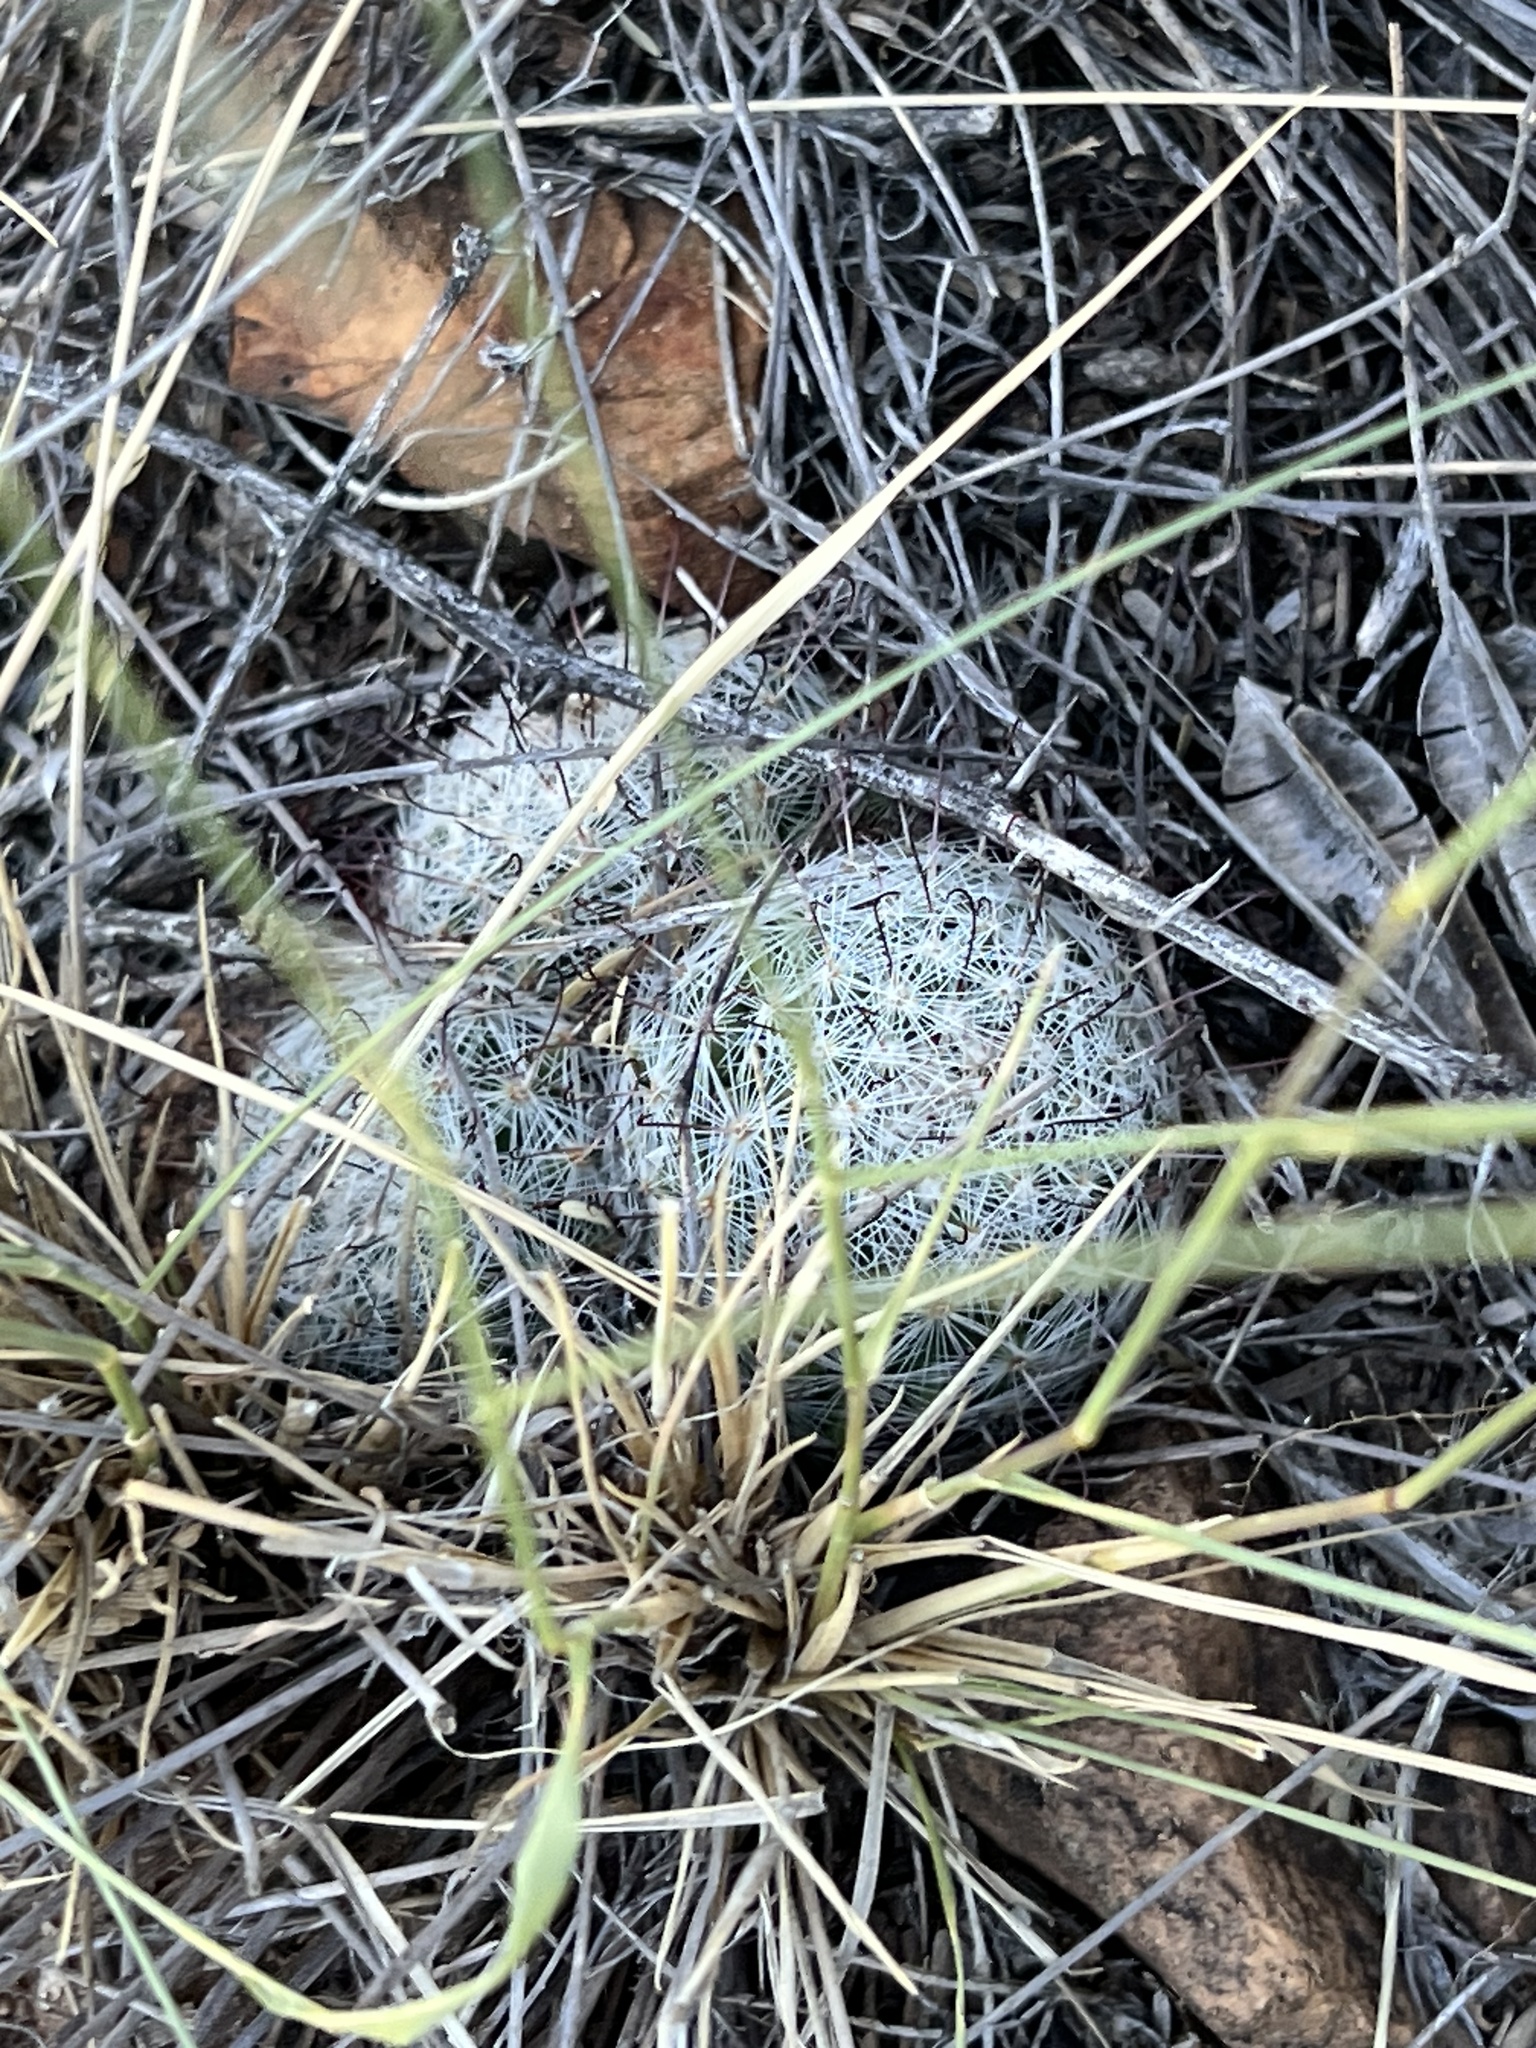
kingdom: Plantae
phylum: Tracheophyta
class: Magnoliopsida
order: Caryophyllales
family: Cactaceae
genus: Cochemiea
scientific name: Cochemiea grahamii
